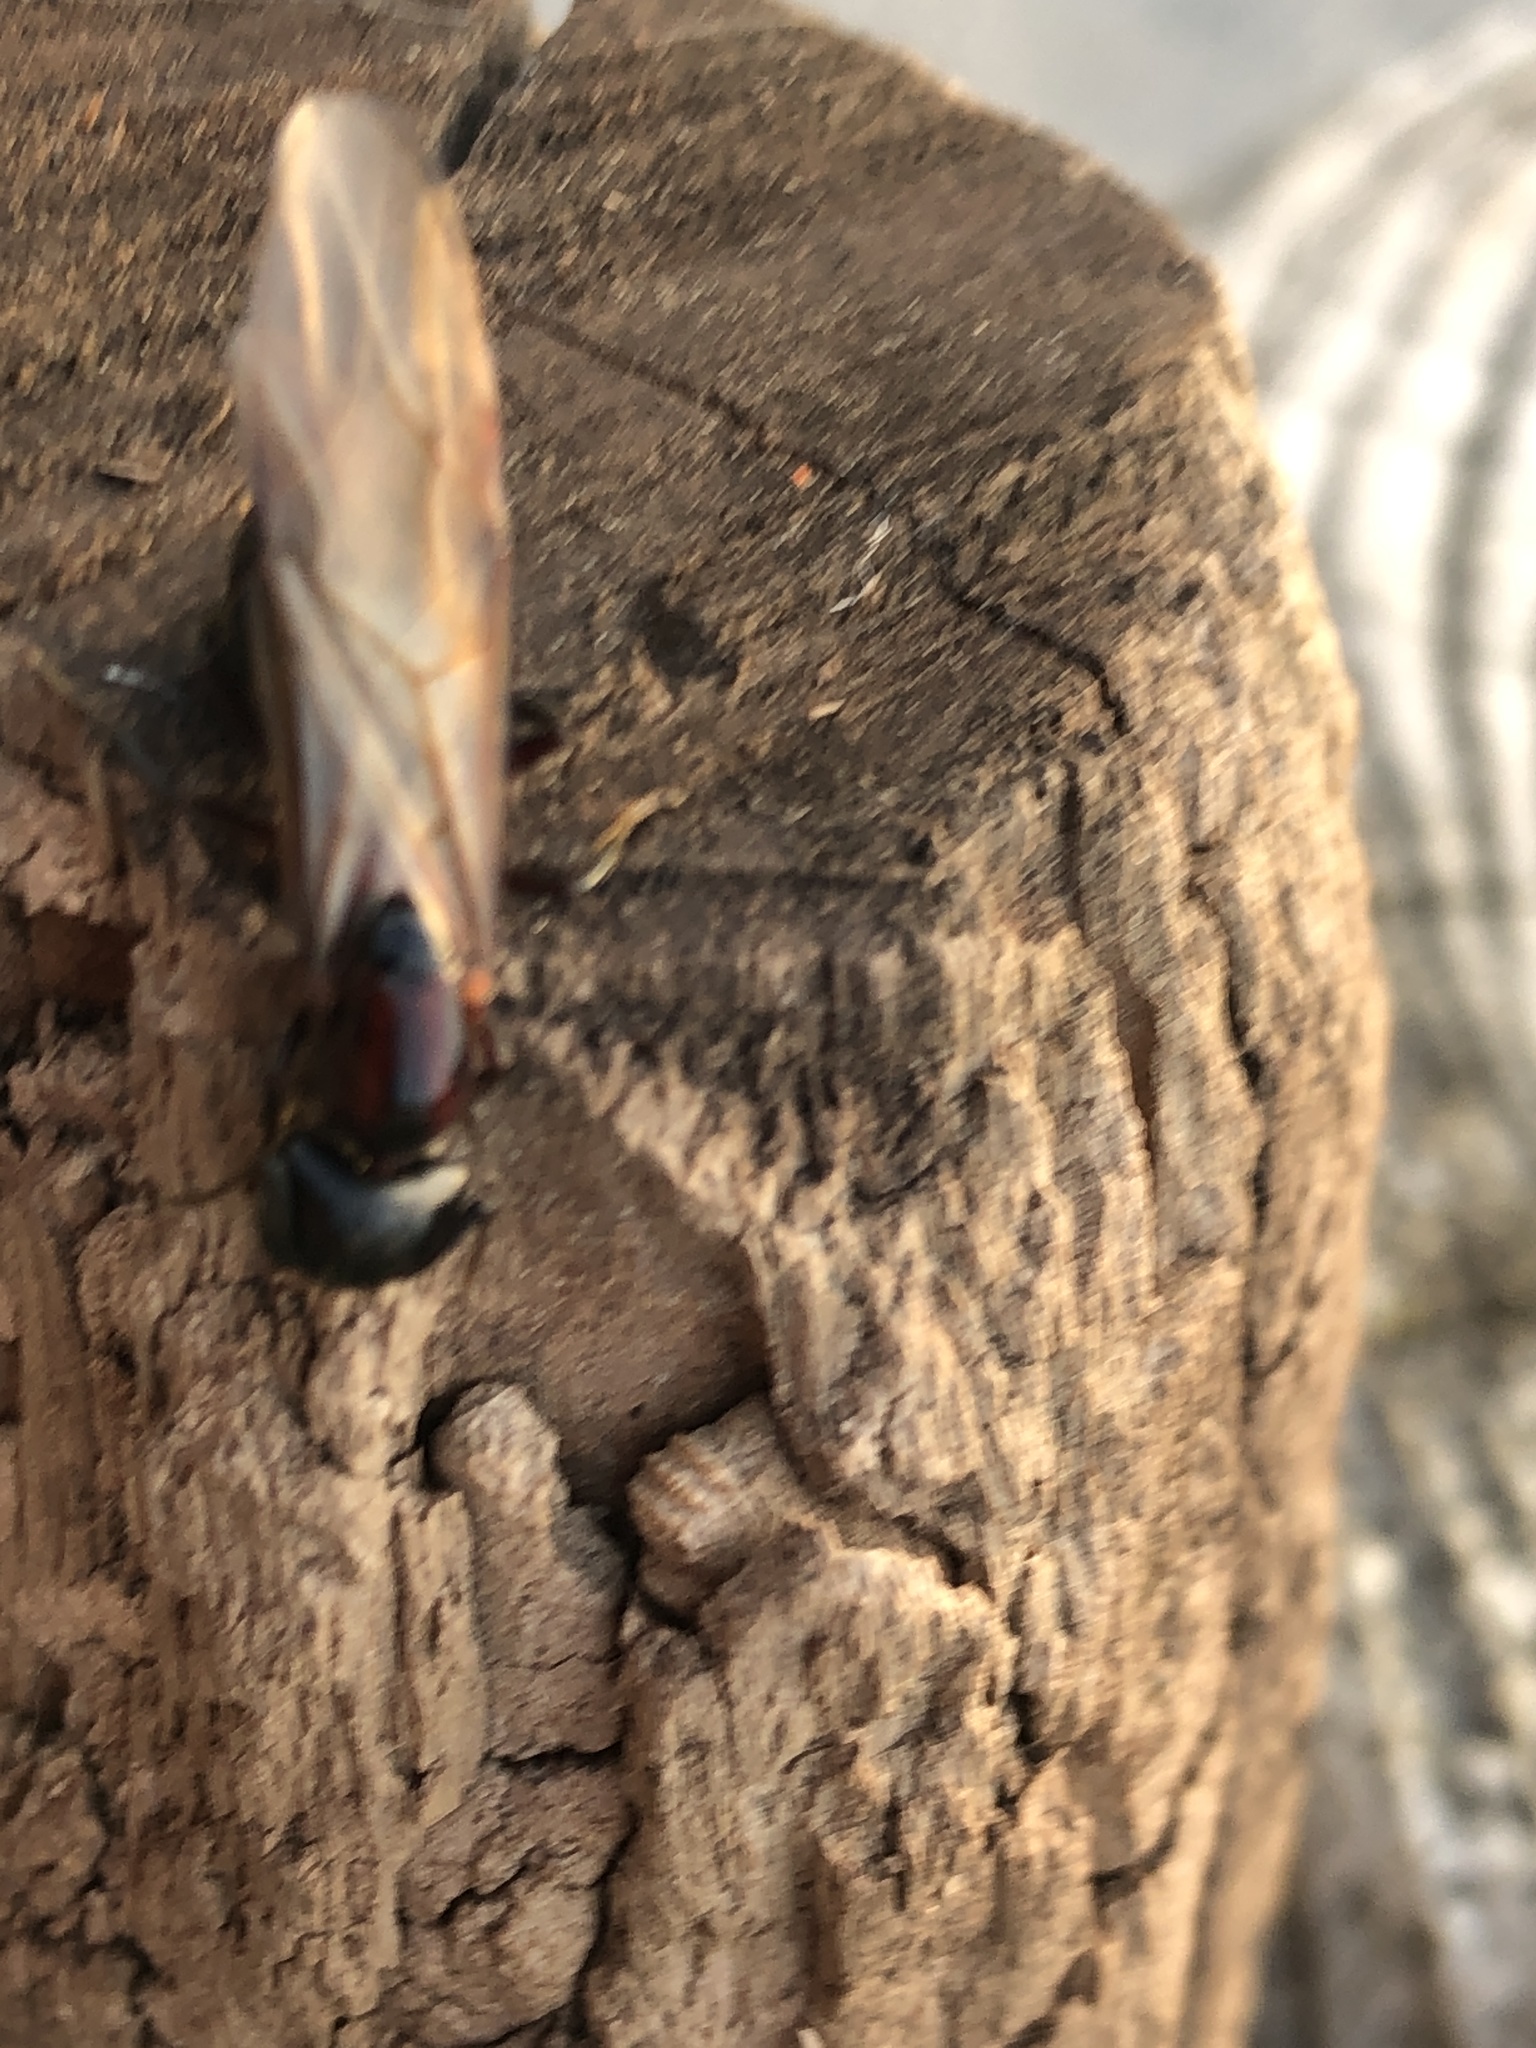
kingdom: Animalia
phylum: Arthropoda
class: Insecta
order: Hymenoptera
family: Formicidae
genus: Camponotus
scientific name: Camponotus novaeboracensis
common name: New york carpenter ant
